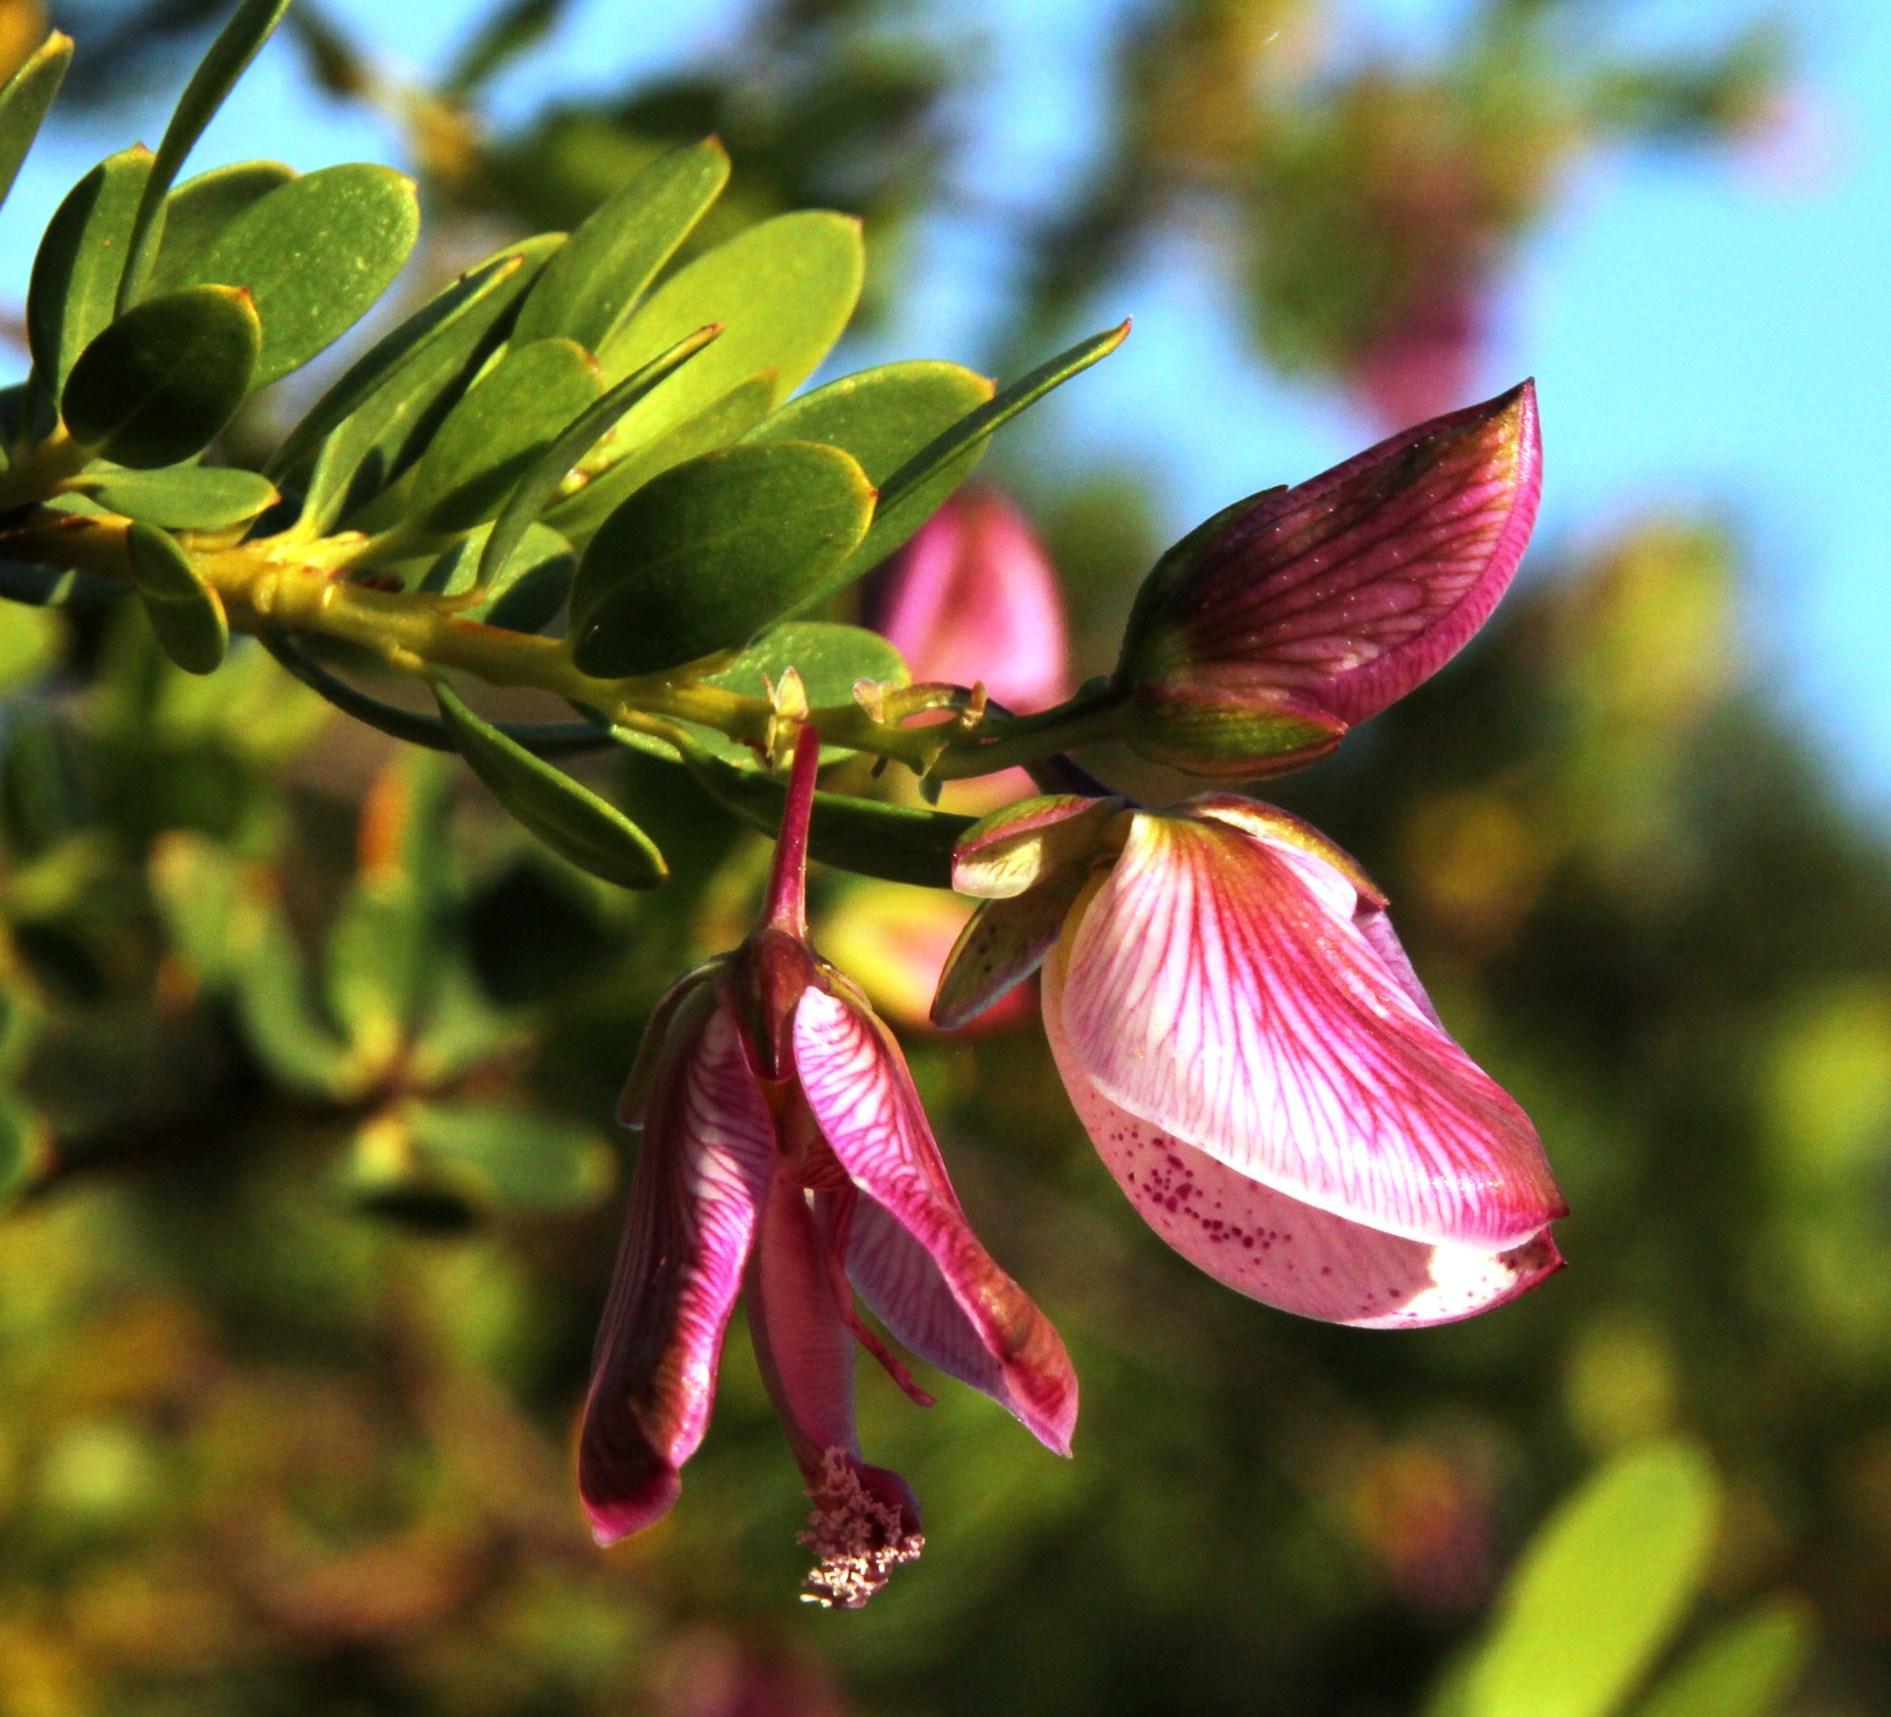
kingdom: Plantae
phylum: Tracheophyta
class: Magnoliopsida
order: Fabales
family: Polygalaceae
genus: Polygala
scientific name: Polygala myrtifolia
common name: Myrtle-leaf milkwort
